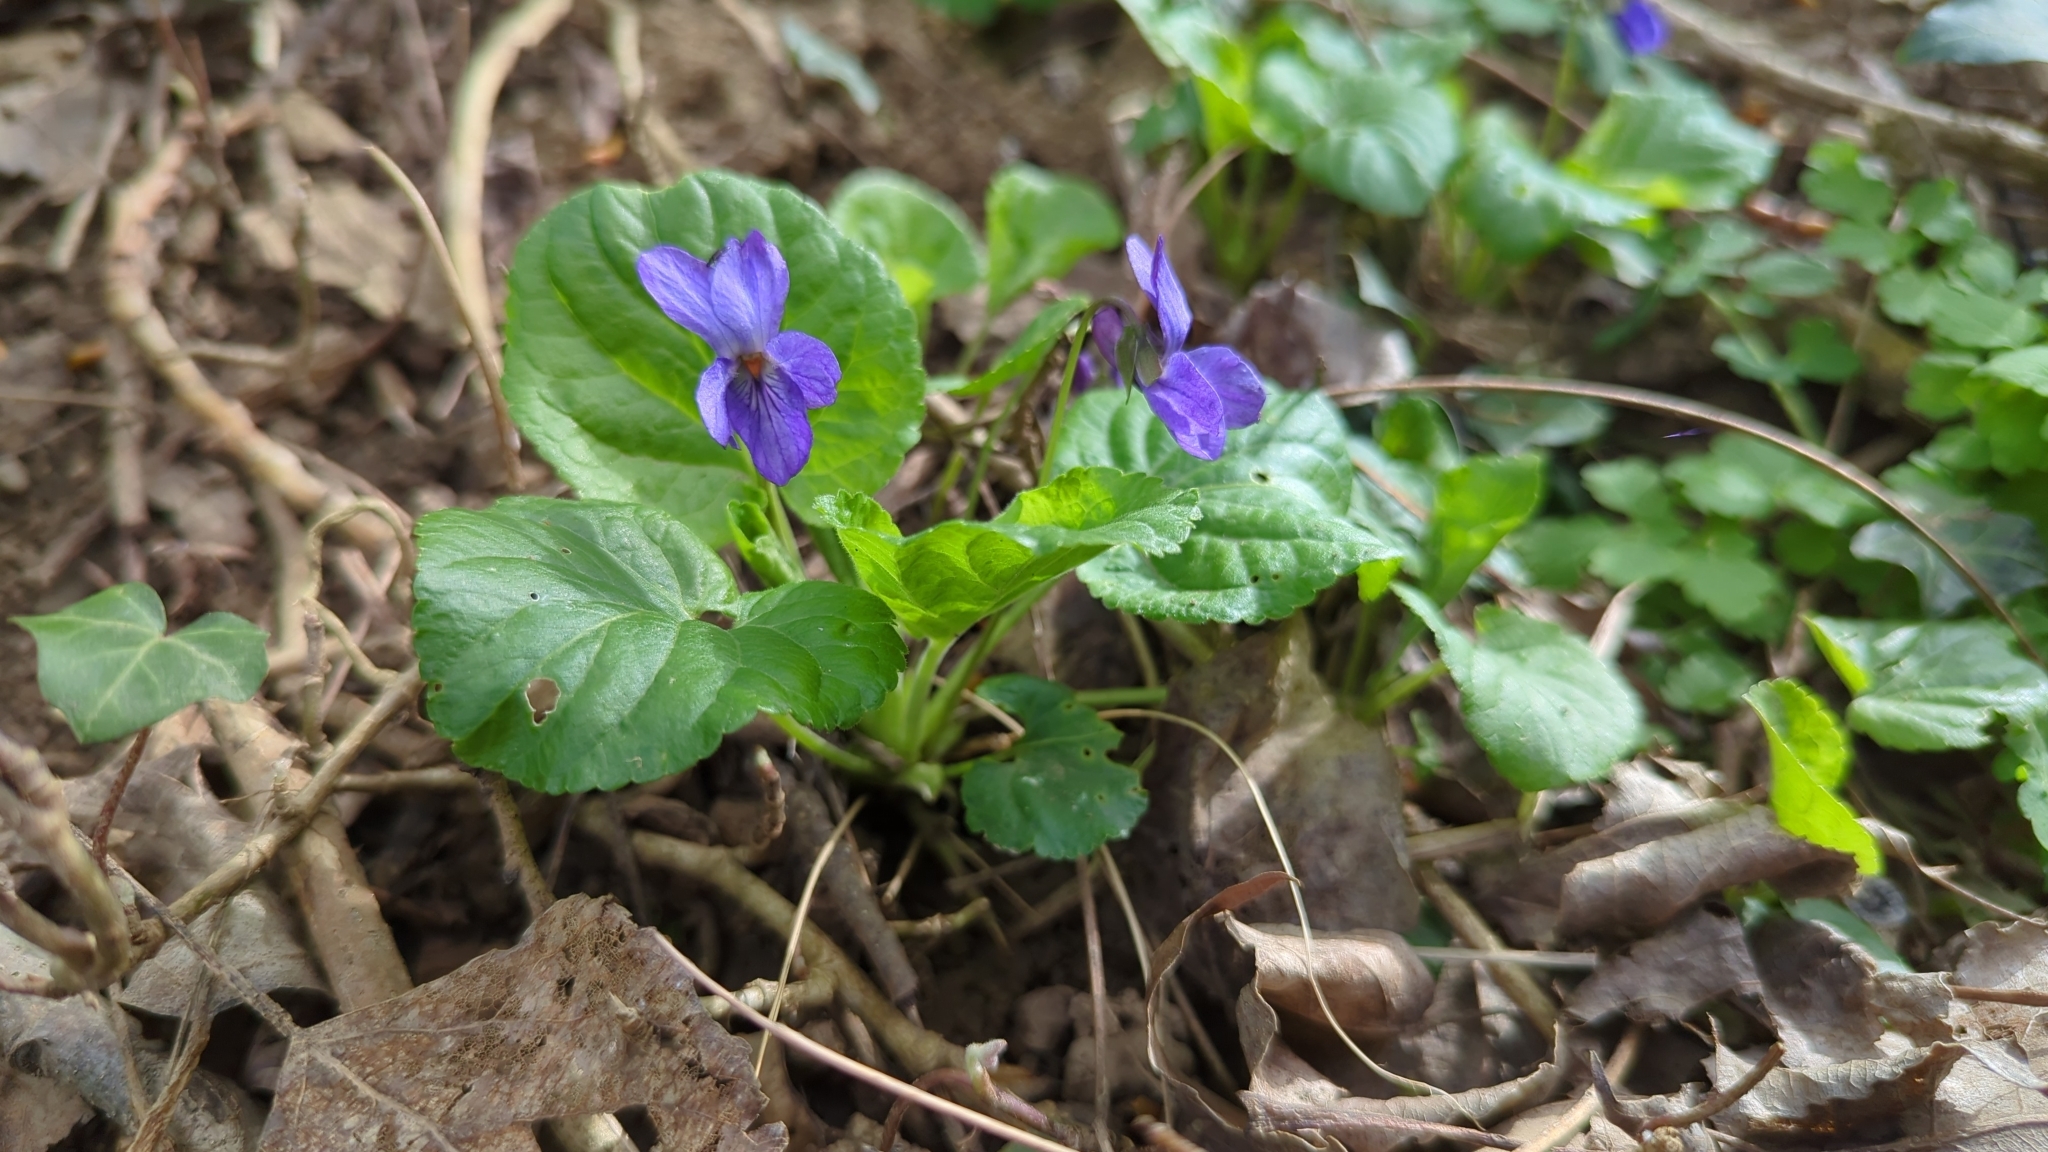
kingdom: Plantae
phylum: Tracheophyta
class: Magnoliopsida
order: Malpighiales
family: Violaceae
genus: Viola
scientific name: Viola odorata
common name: Sweet violet
